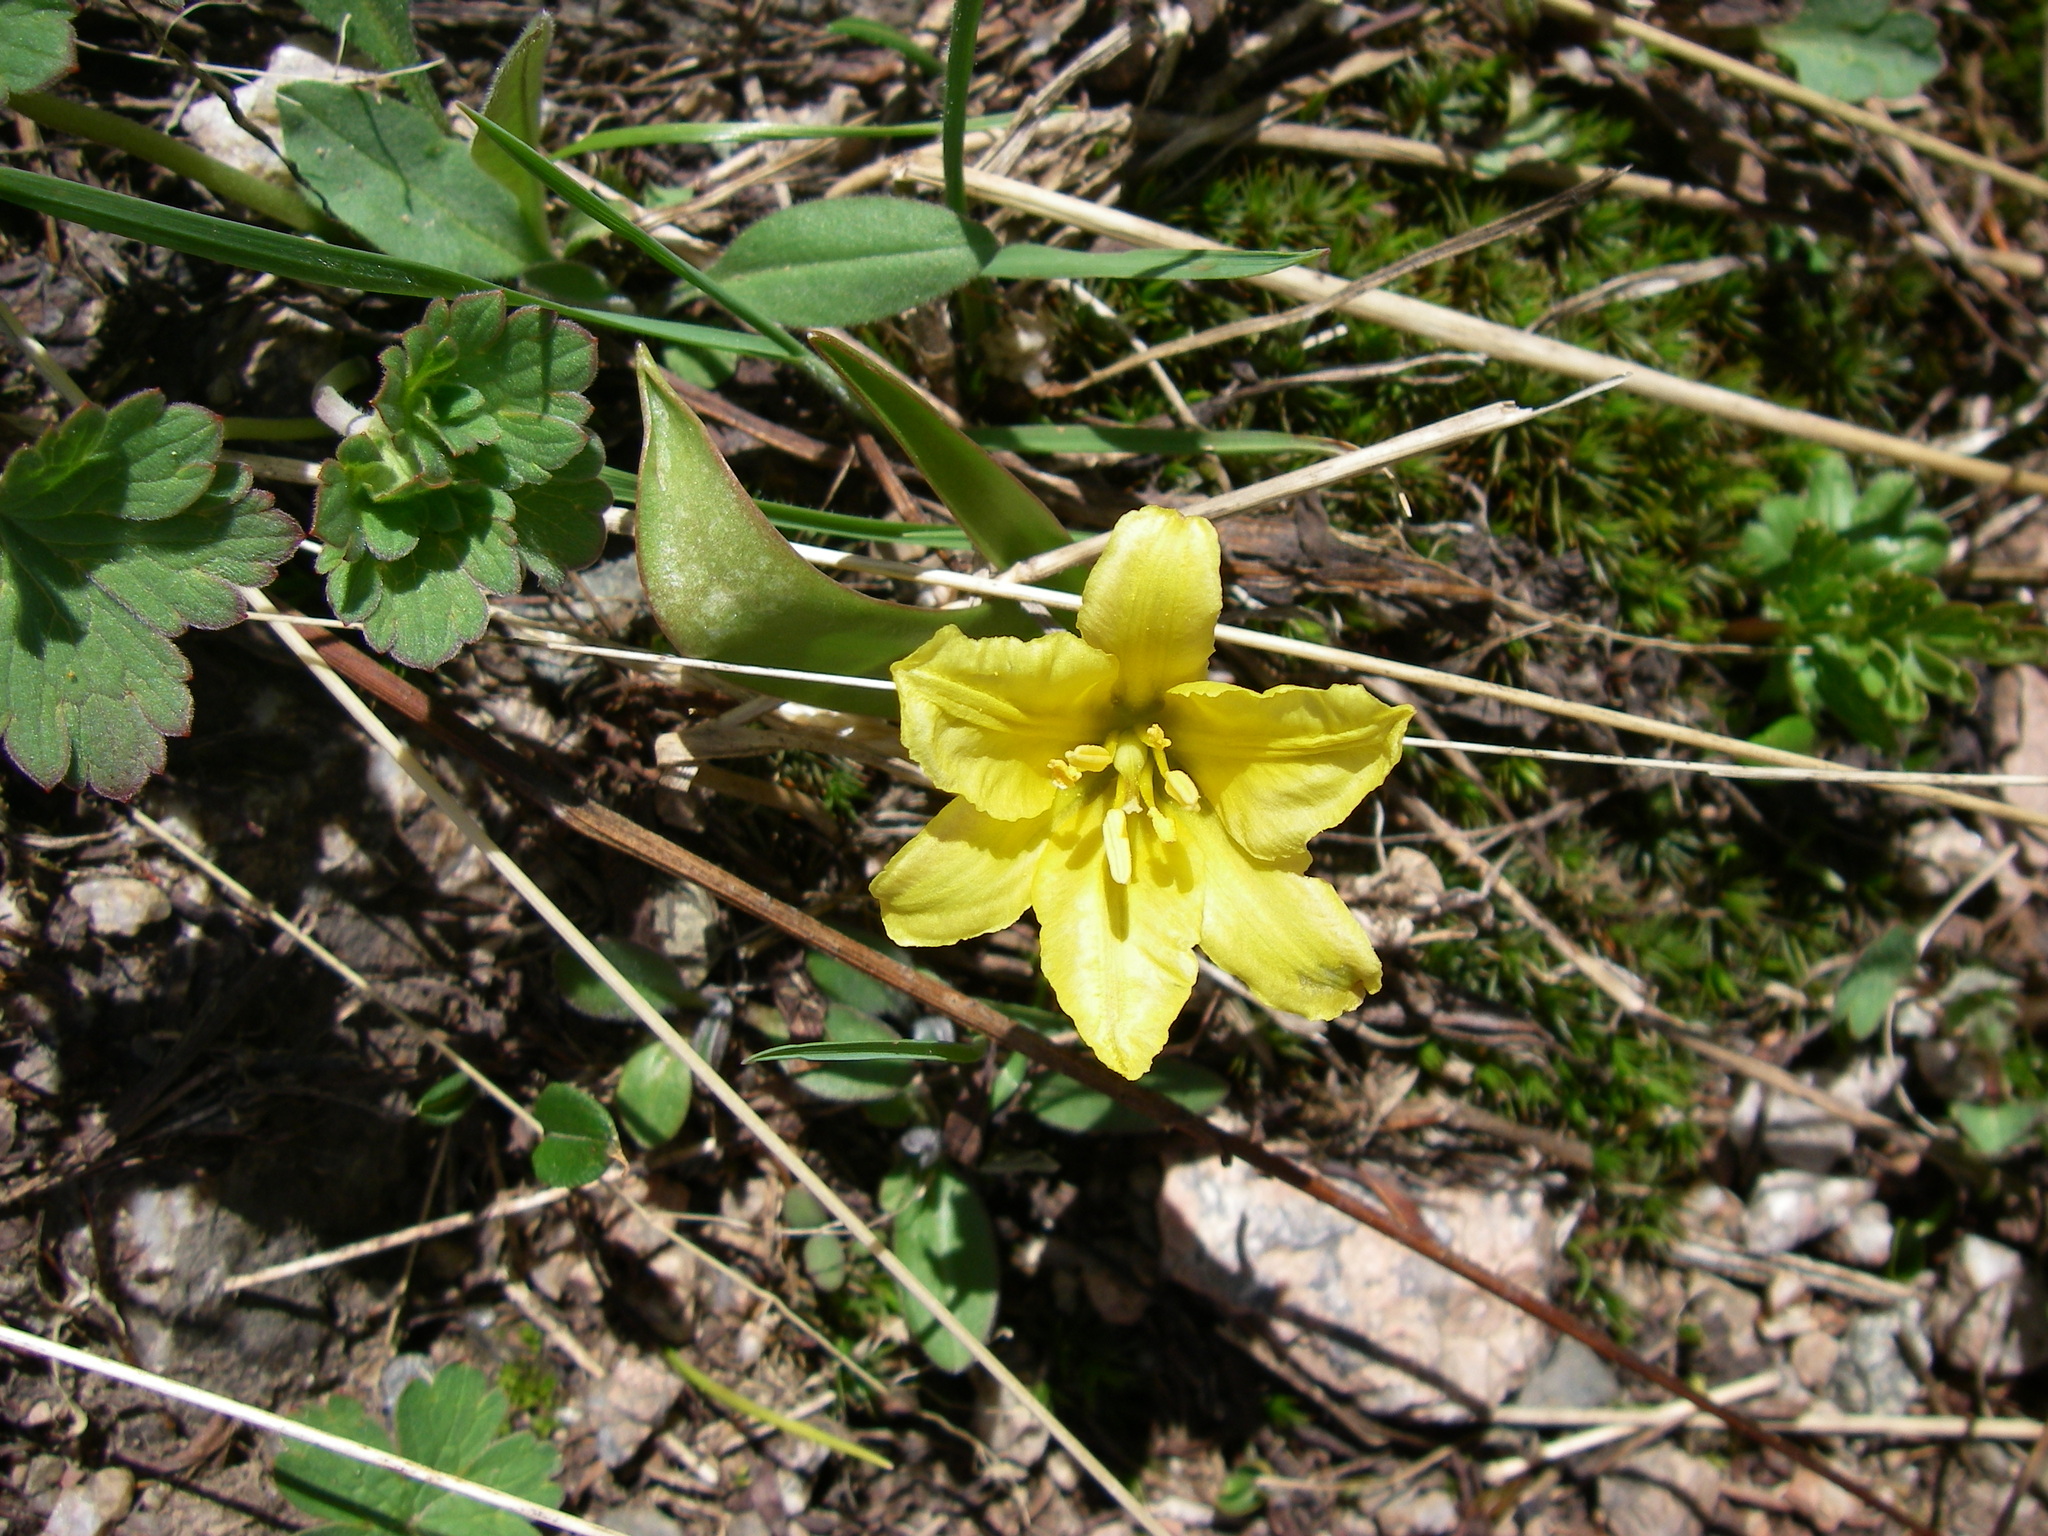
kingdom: Plantae
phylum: Tracheophyta
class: Liliopsida
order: Liliales
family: Liliaceae
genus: Tulipa
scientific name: Tulipa heterophylla
